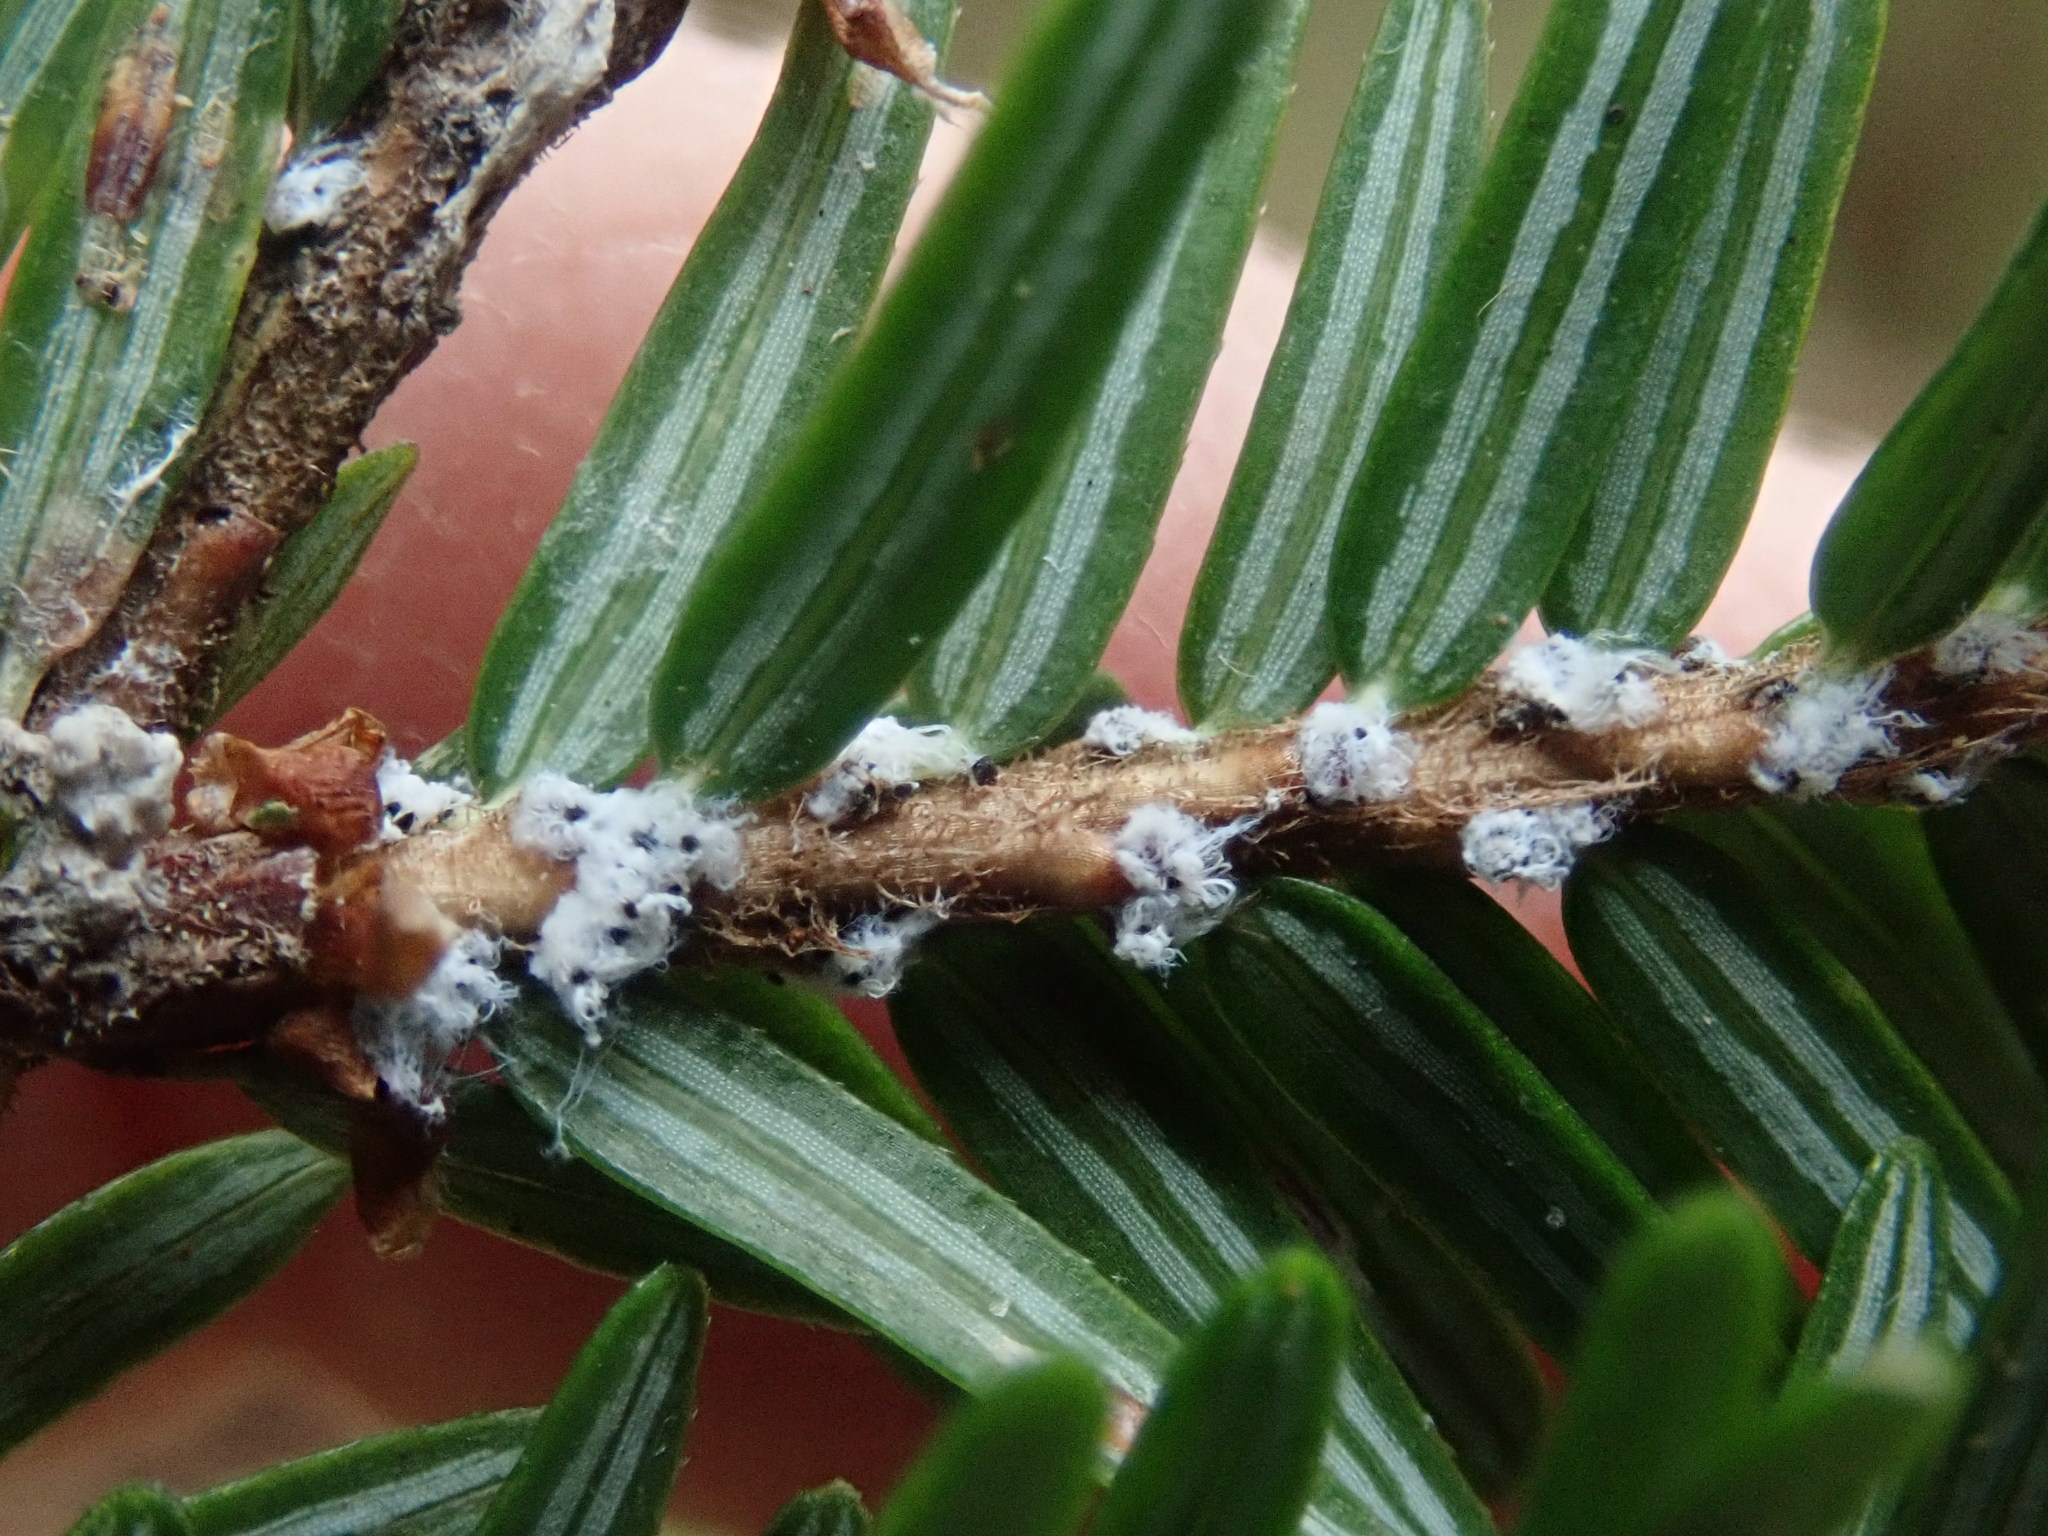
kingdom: Animalia
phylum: Arthropoda
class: Insecta
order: Hemiptera
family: Adelgidae
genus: Adelges
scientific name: Adelges tsugae
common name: Hemlock woolly adelgid
